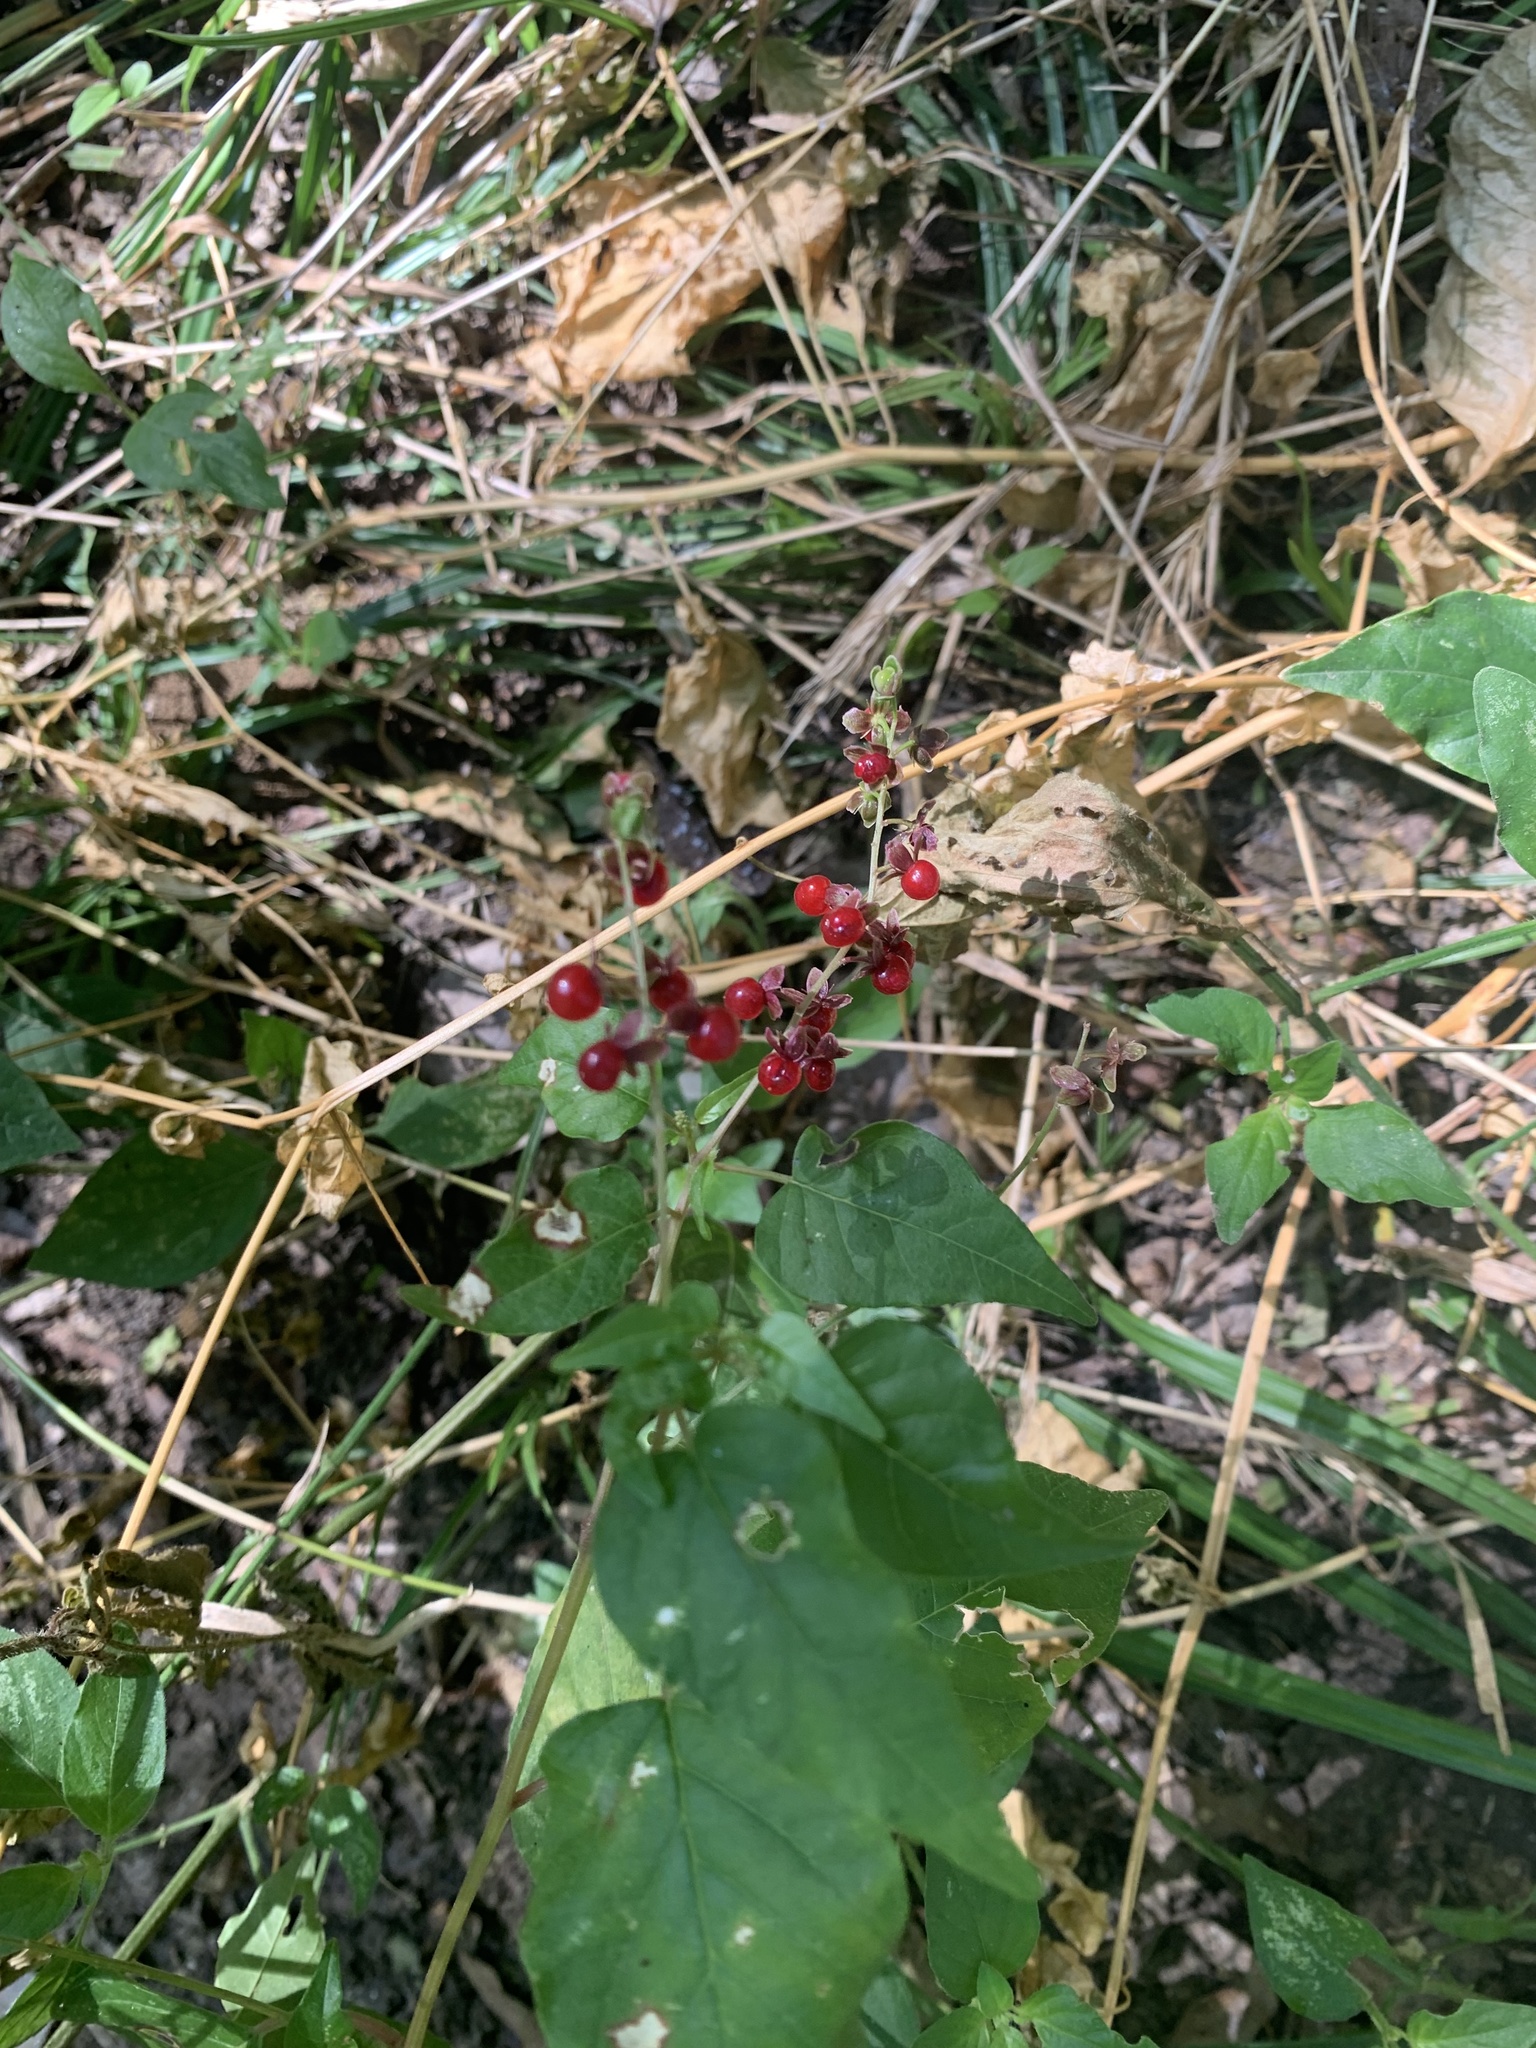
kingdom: Plantae
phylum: Tracheophyta
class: Magnoliopsida
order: Caryophyllales
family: Phytolaccaceae
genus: Rivina
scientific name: Rivina humilis
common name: Rougeplant
